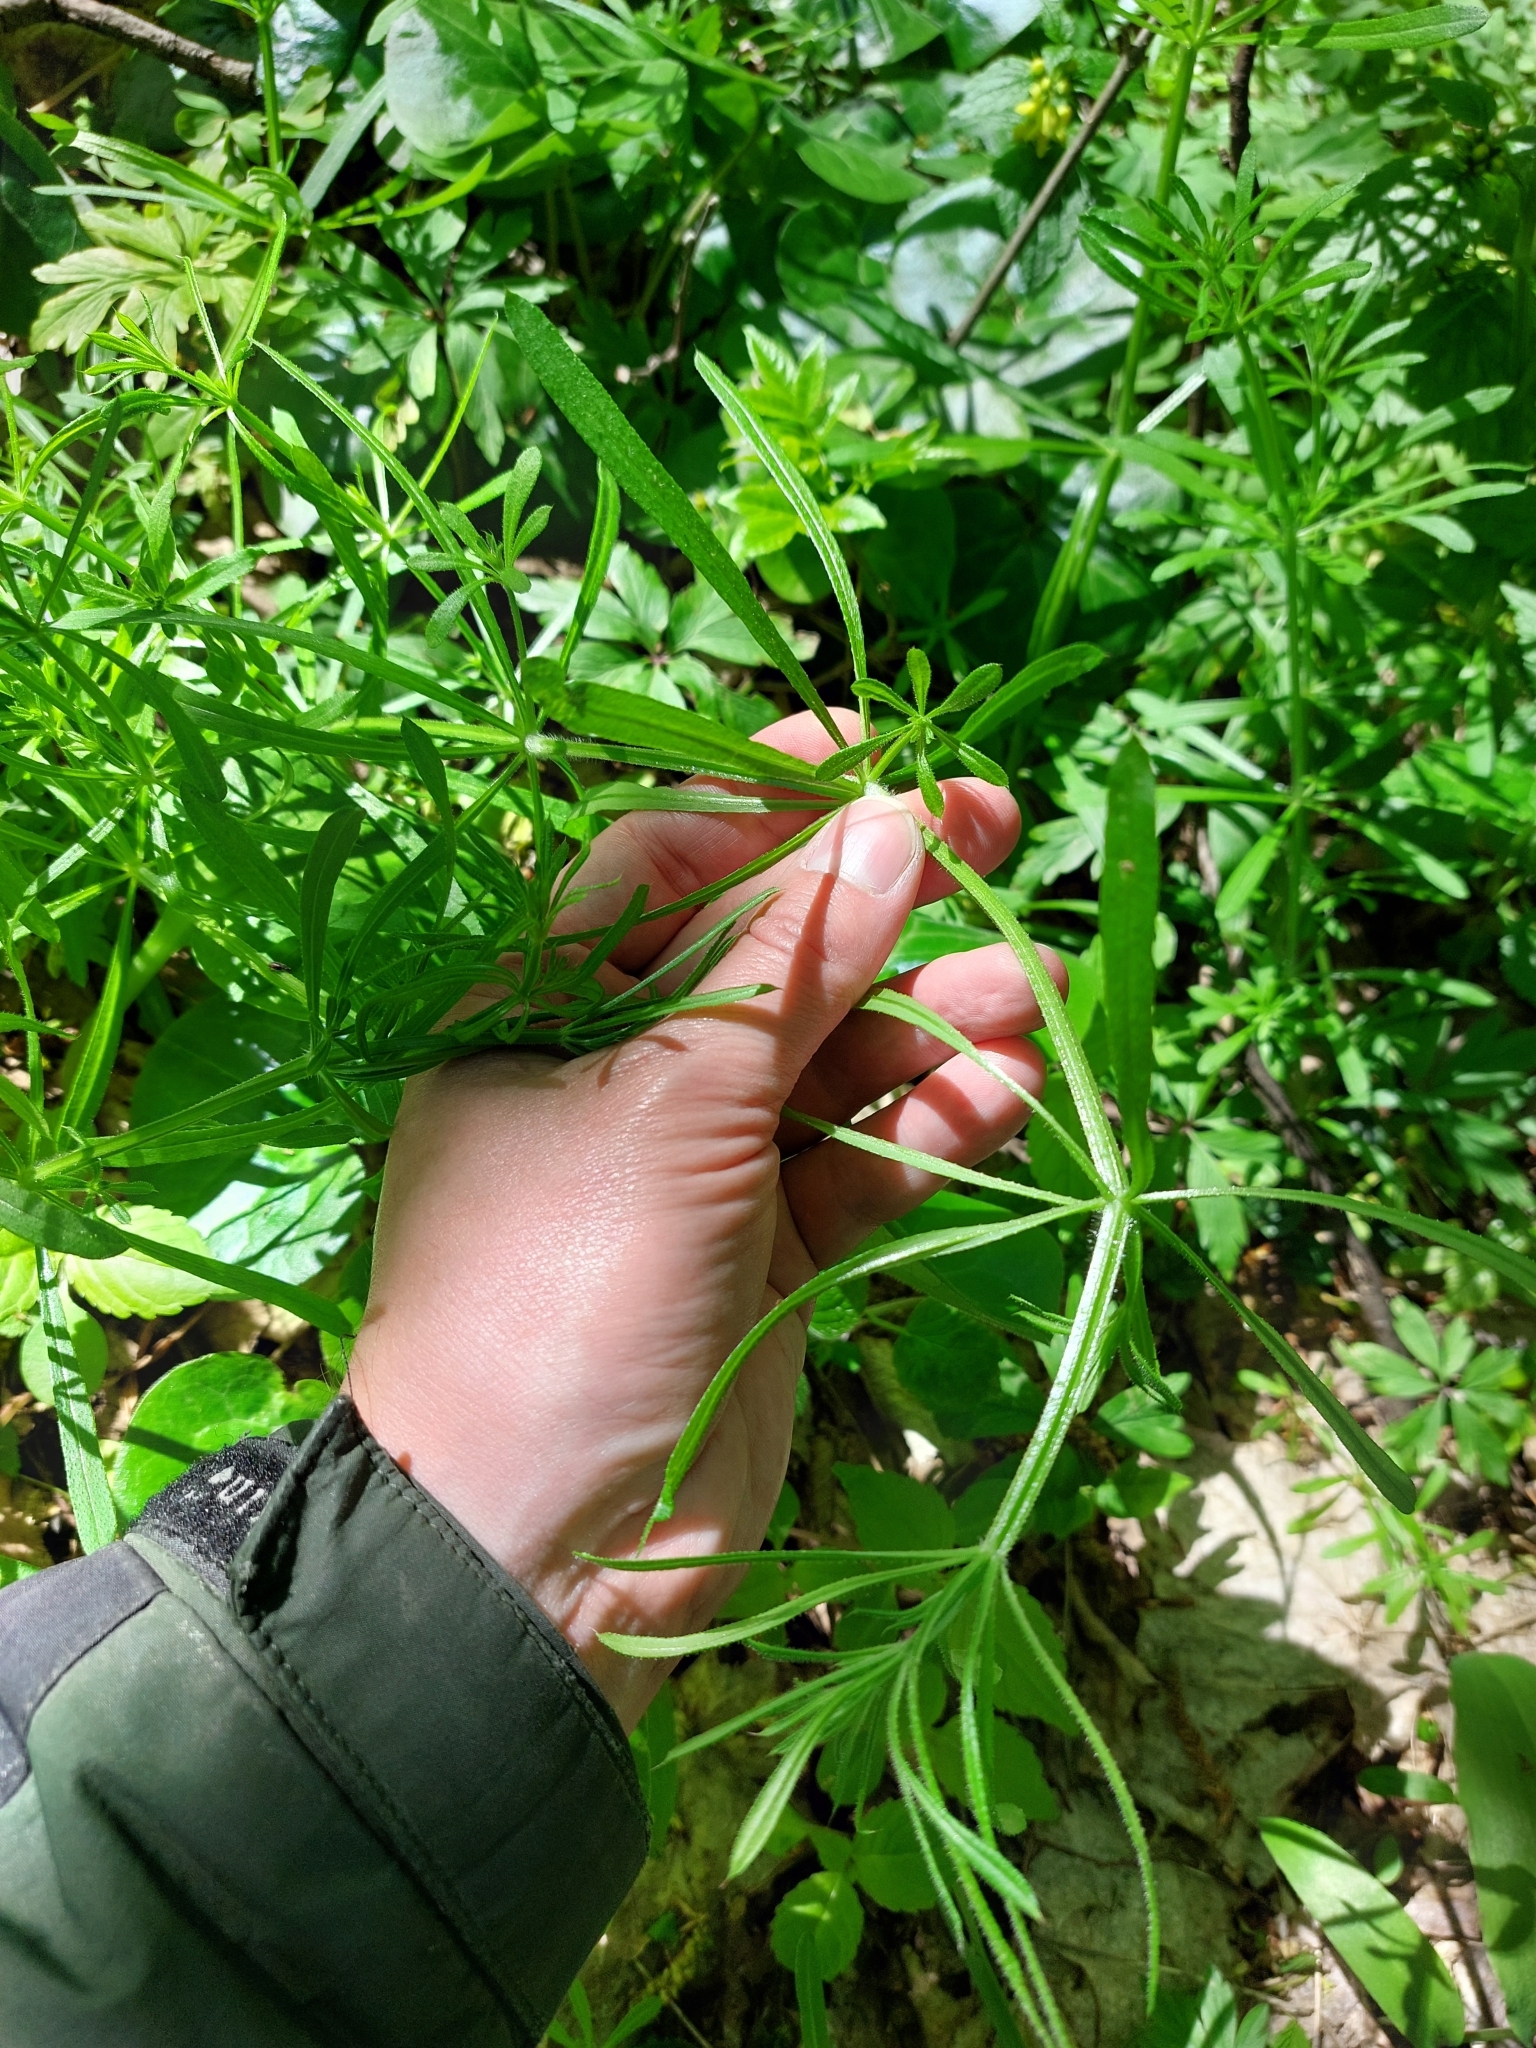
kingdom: Plantae
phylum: Tracheophyta
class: Magnoliopsida
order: Gentianales
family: Rubiaceae
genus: Galium
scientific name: Galium aparine
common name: Cleavers
